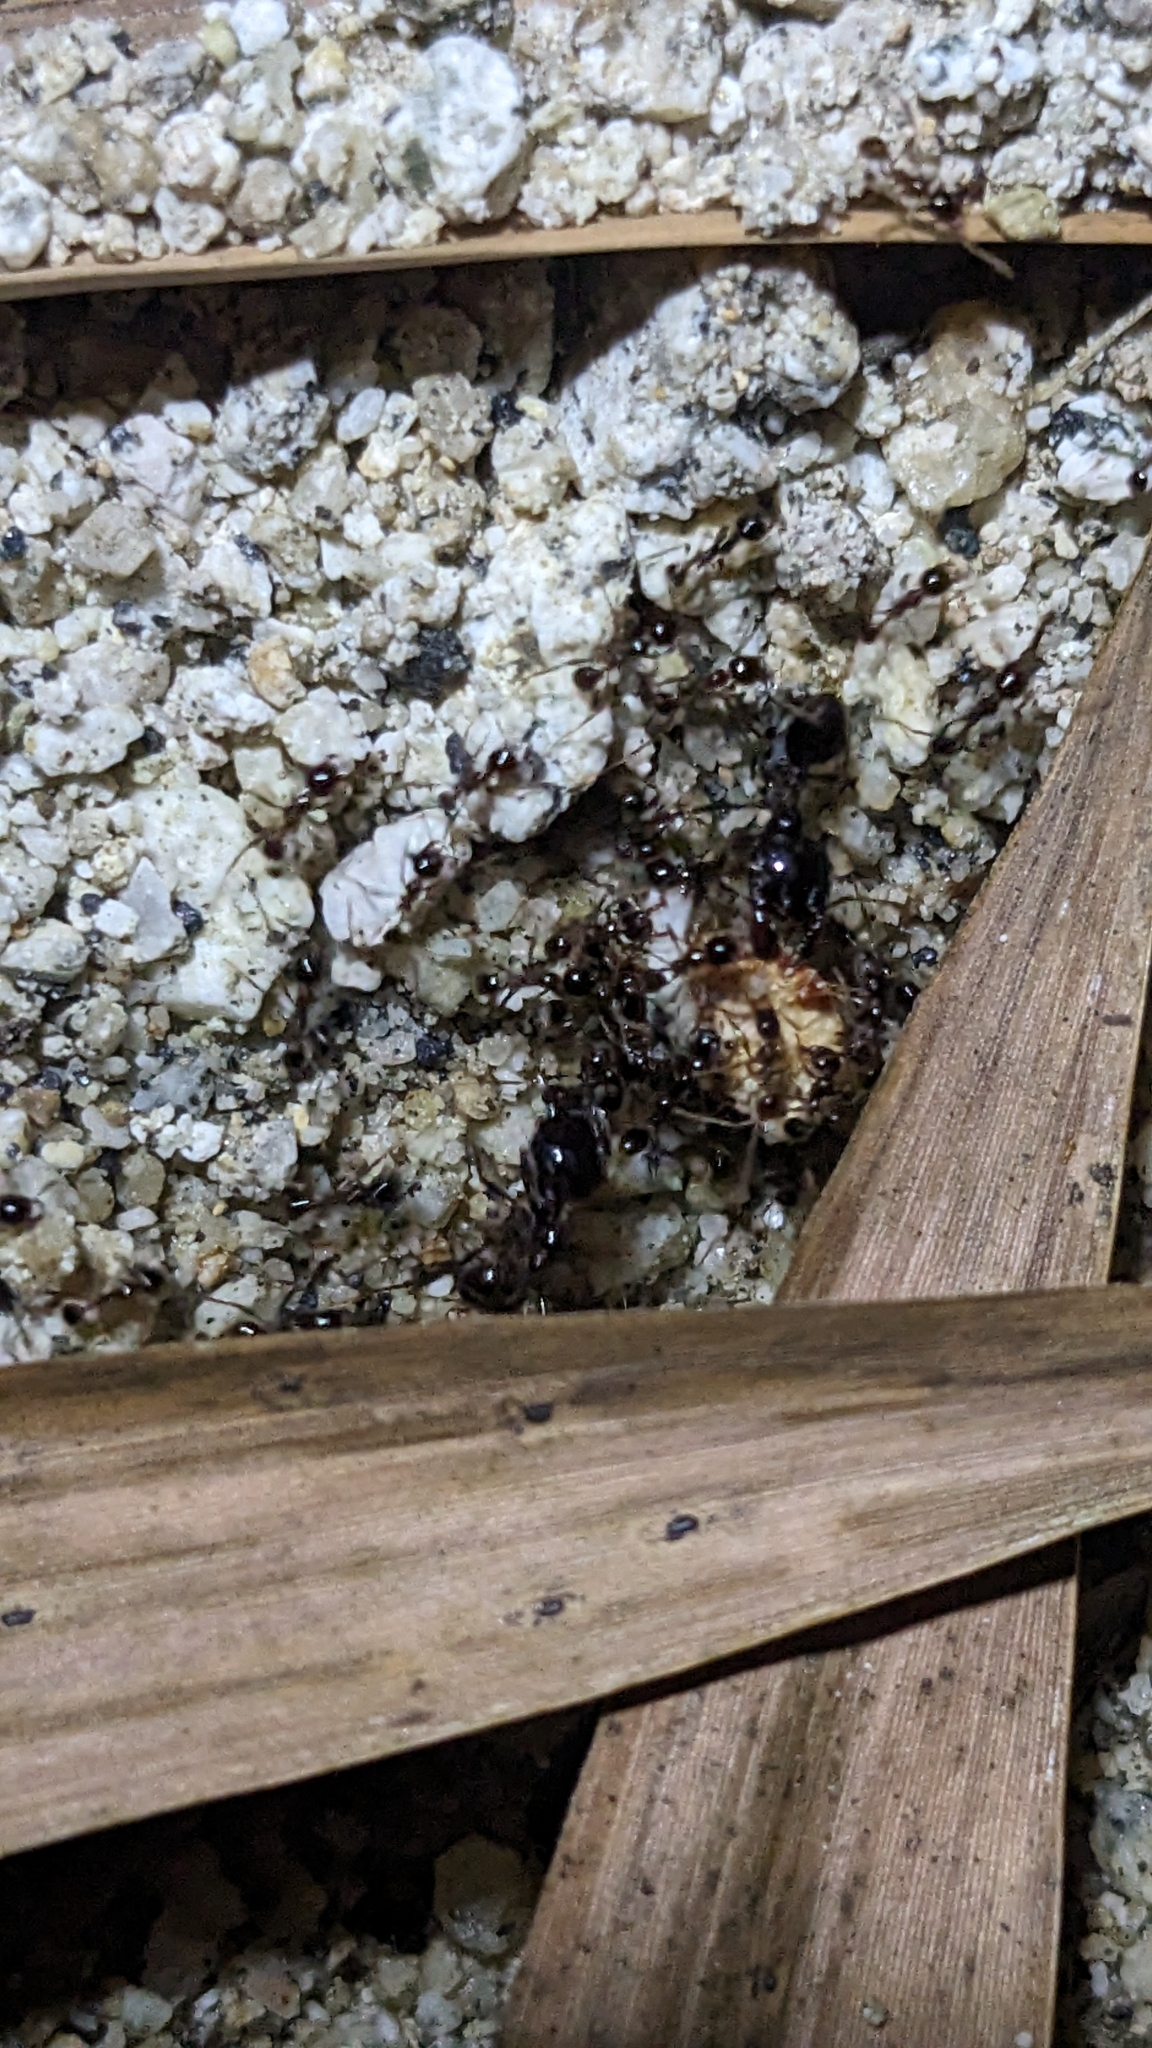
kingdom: Animalia
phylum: Arthropoda
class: Insecta
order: Hymenoptera
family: Formicidae
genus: Pheidologeton
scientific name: Pheidologeton diversus
